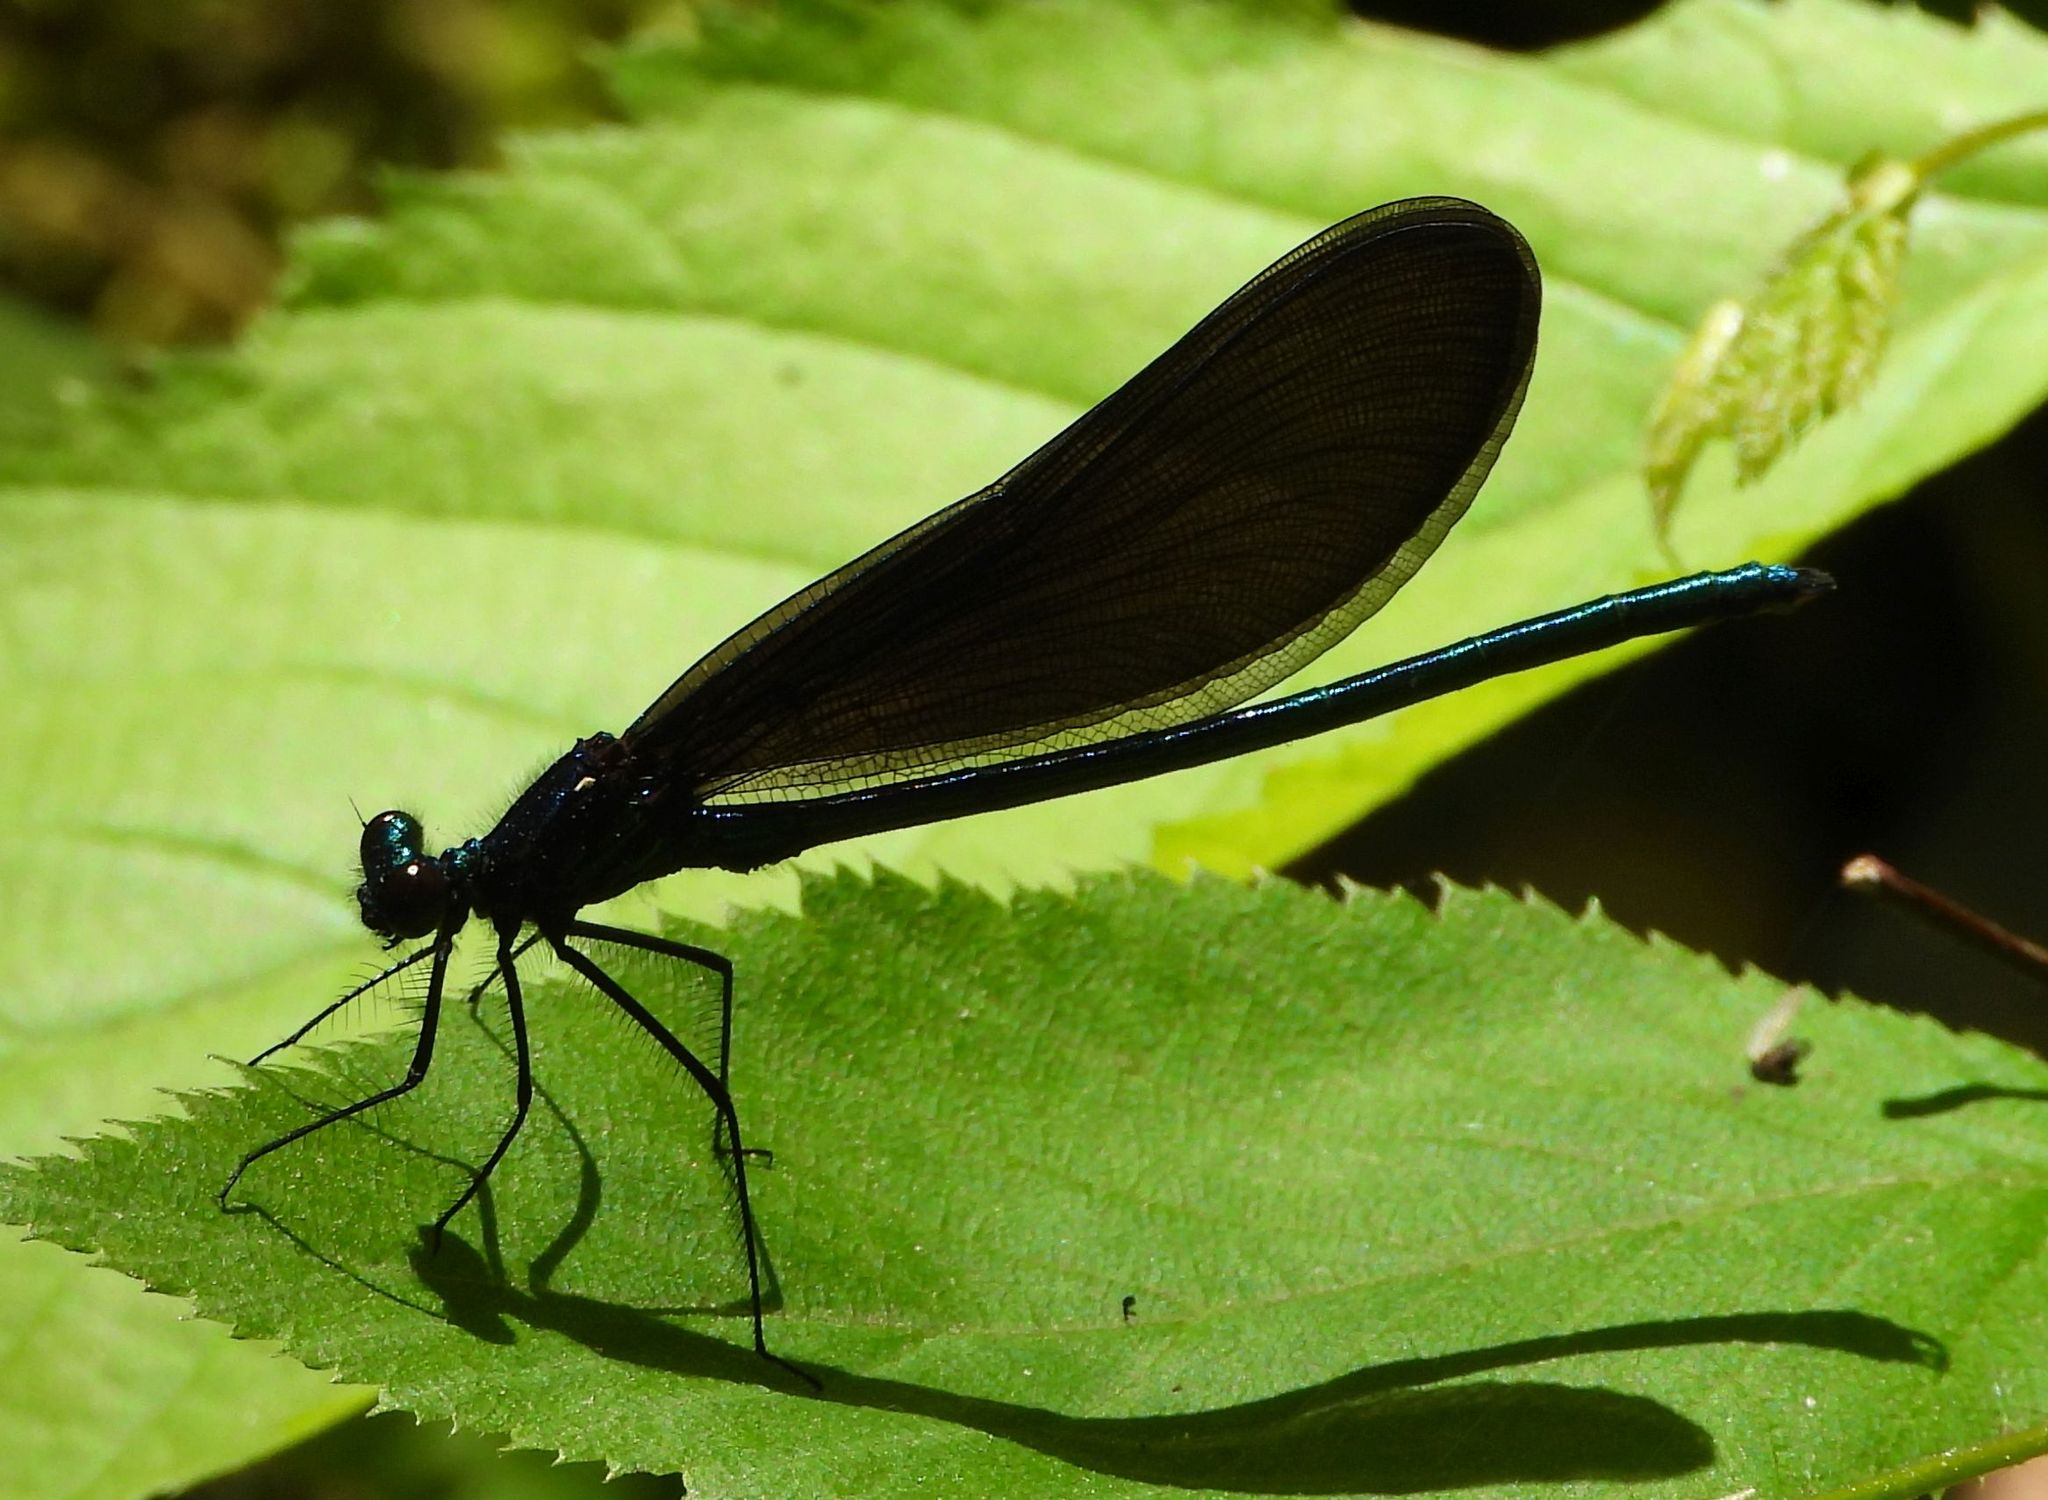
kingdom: Animalia
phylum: Arthropoda
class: Insecta
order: Odonata
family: Calopterygidae
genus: Calopteryx
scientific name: Calopteryx maculata
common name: Ebony jewelwing
